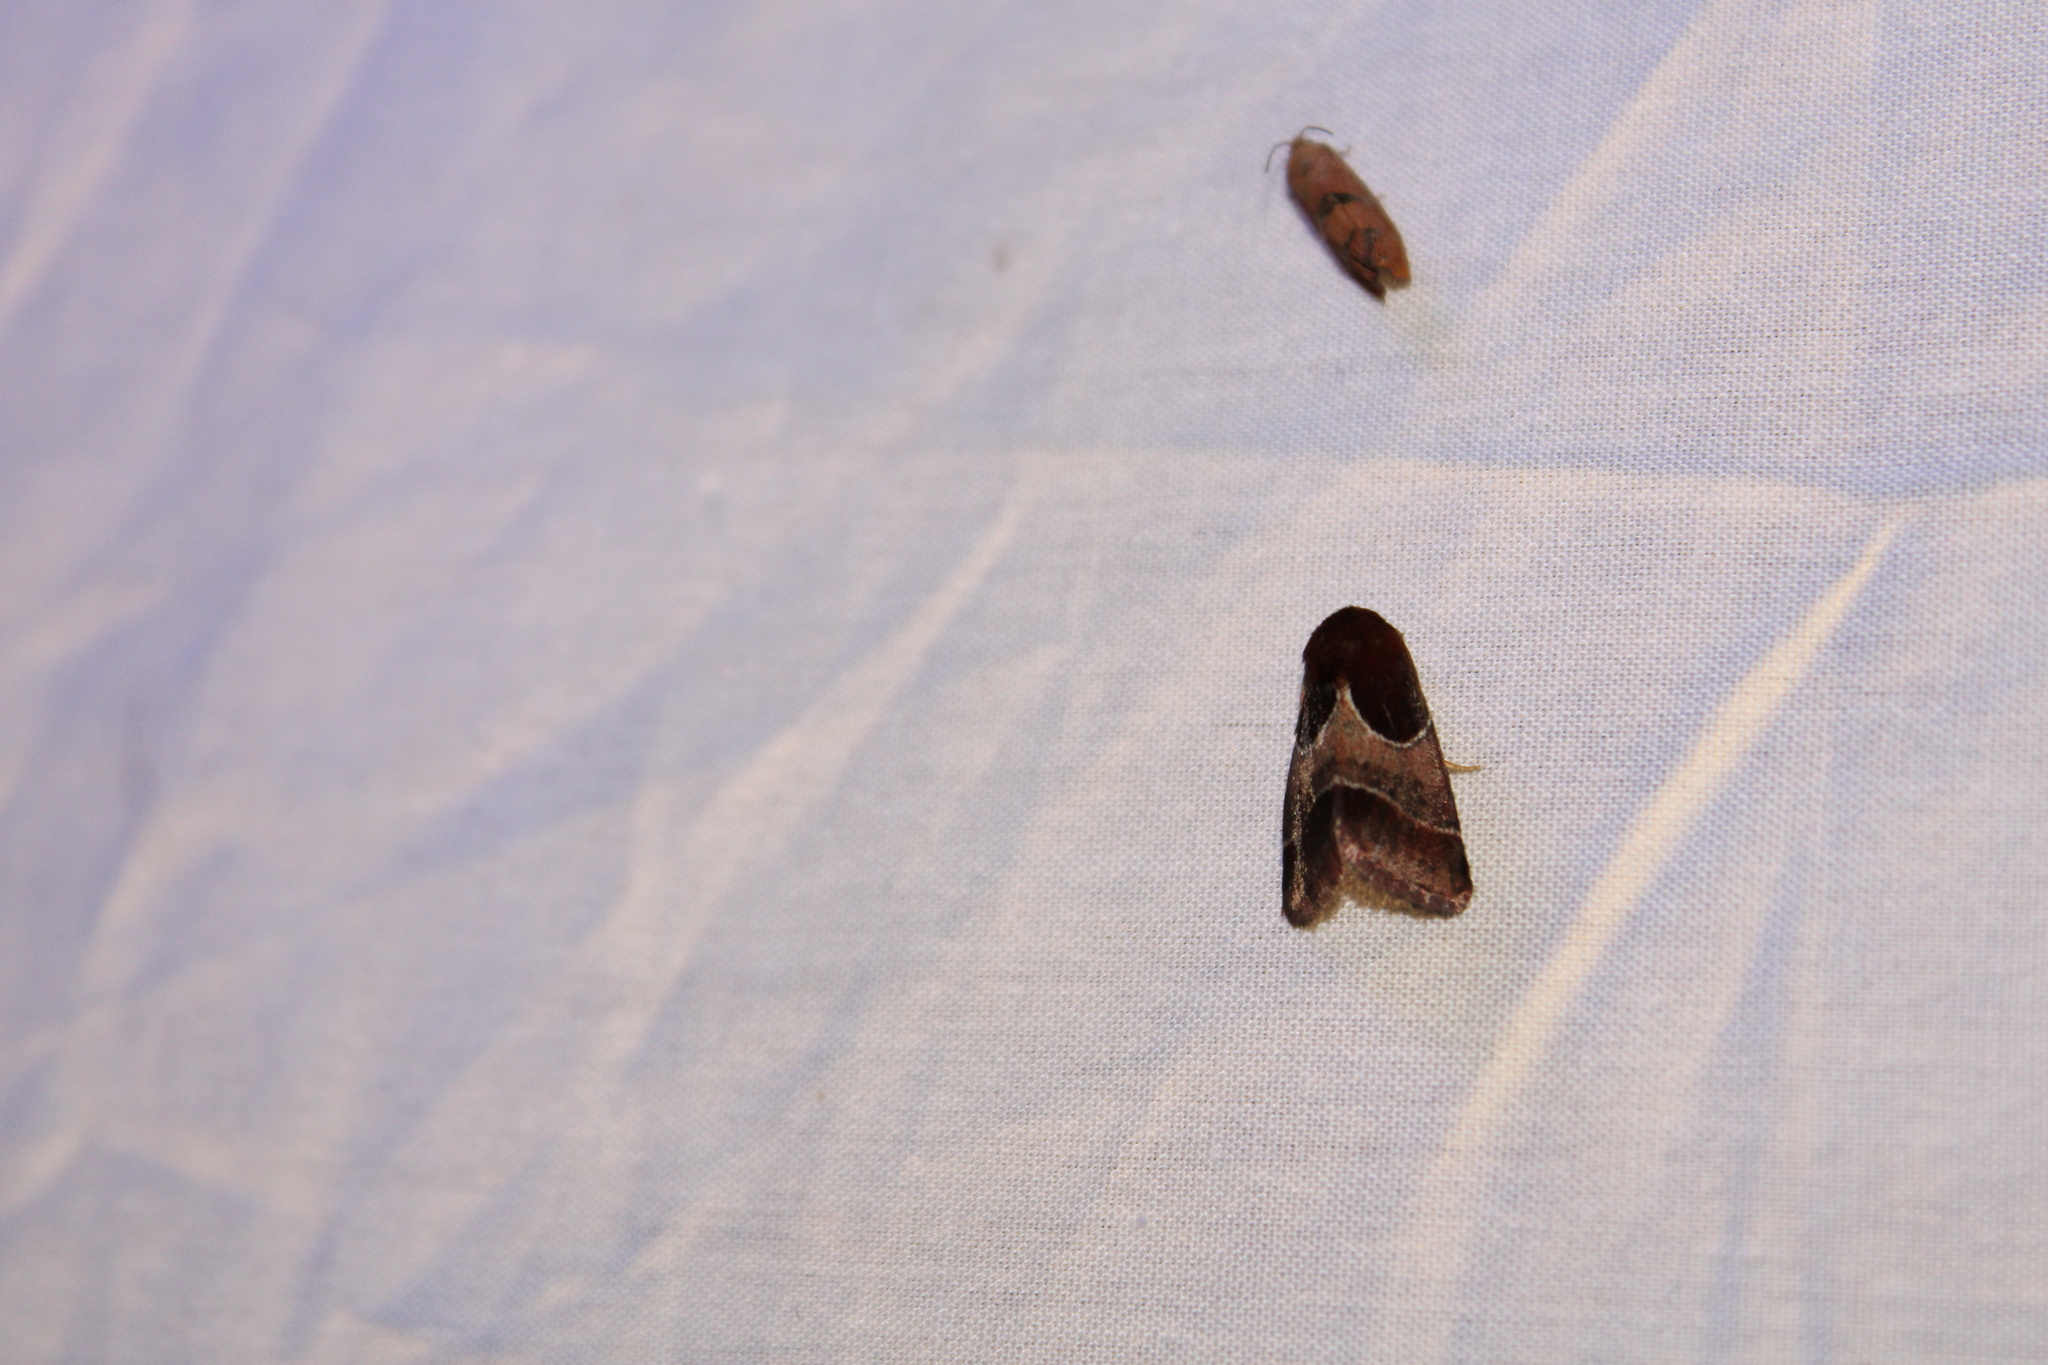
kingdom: Animalia
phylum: Arthropoda
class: Insecta
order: Lepidoptera
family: Noctuidae
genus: Schinia
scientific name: Schinia arcigera
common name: Arcigera flower moth
